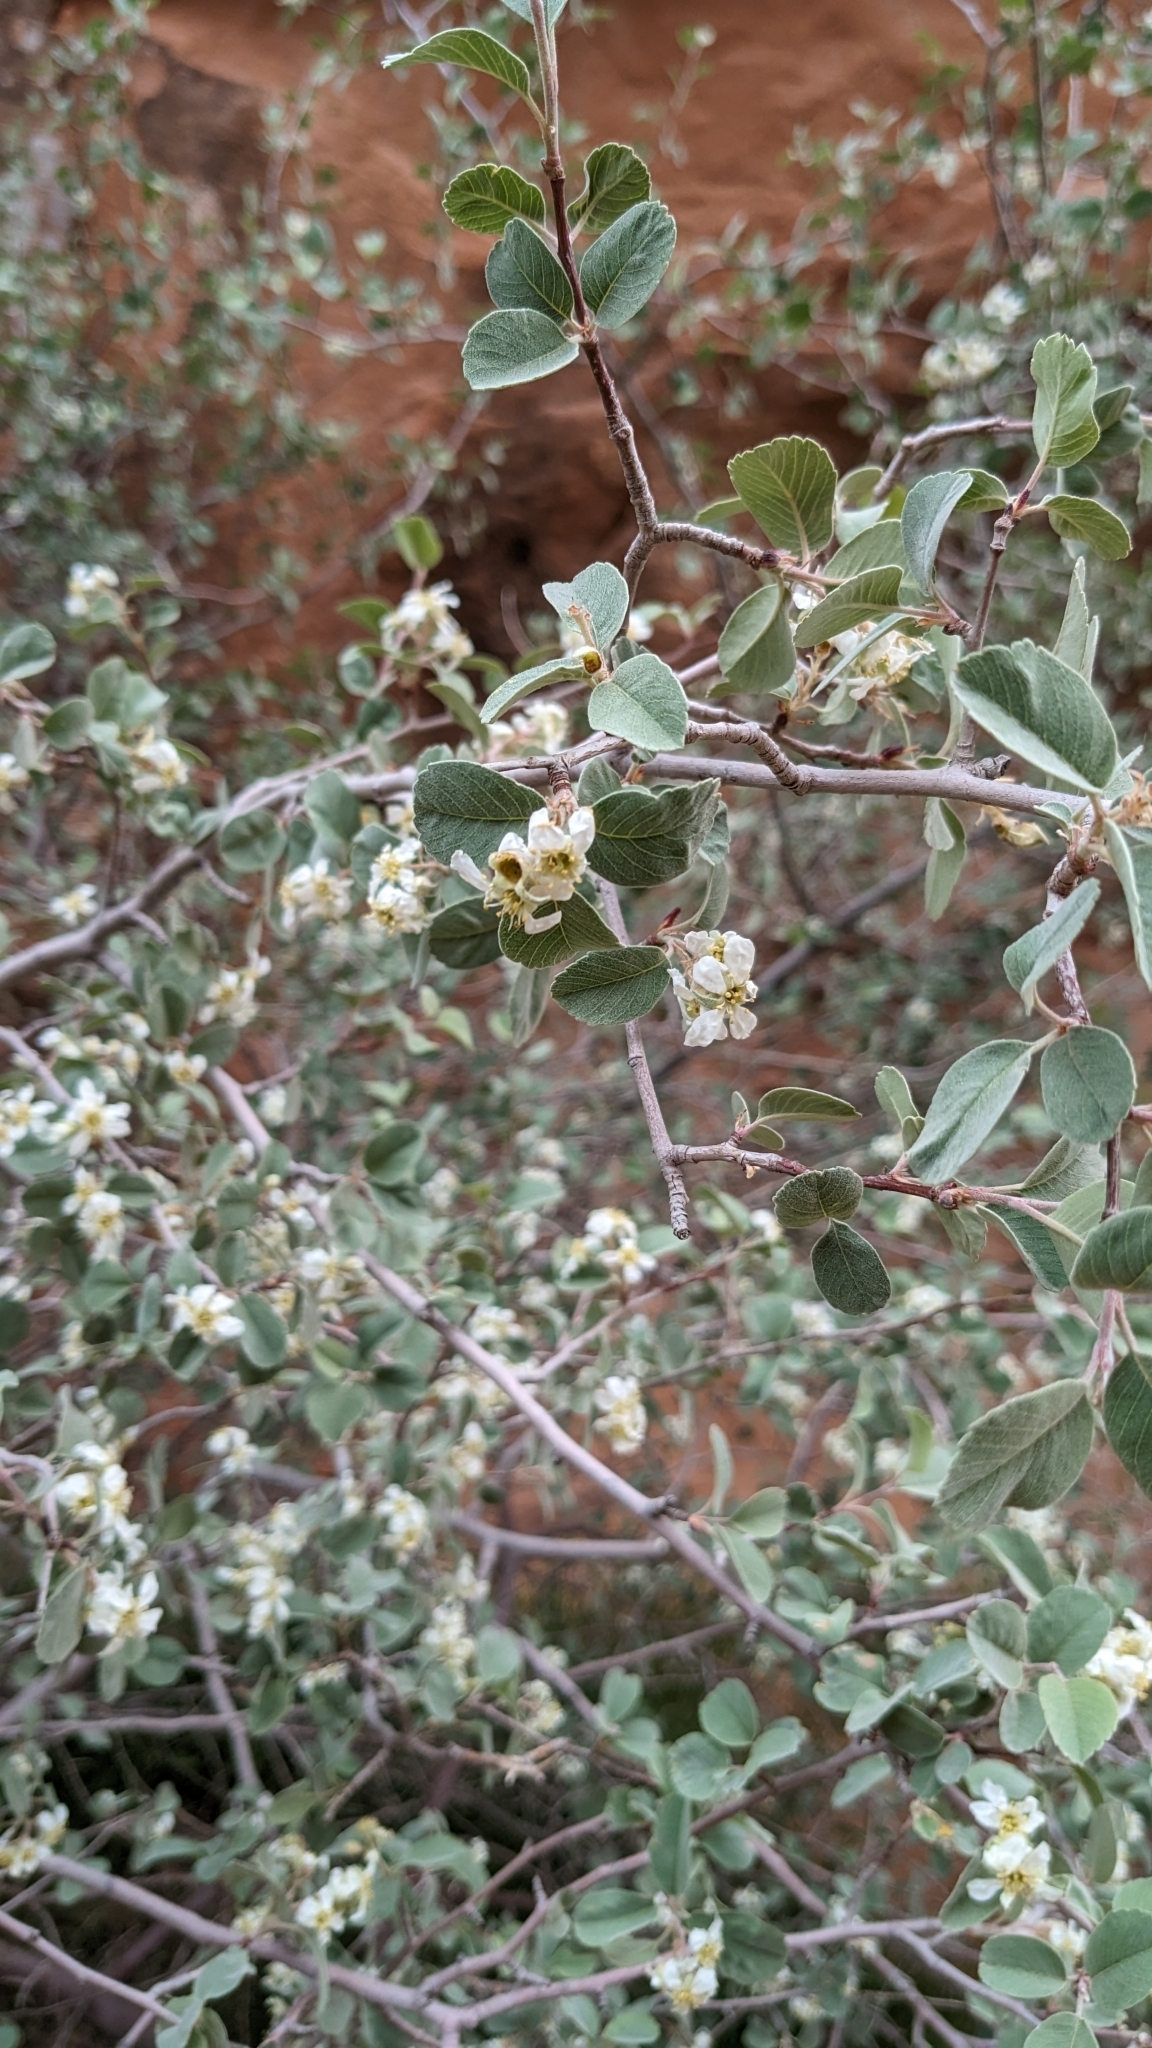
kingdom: Plantae
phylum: Tracheophyta
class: Magnoliopsida
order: Rosales
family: Rosaceae
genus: Amelanchier
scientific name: Amelanchier utahensis
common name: Utah serviceberry
